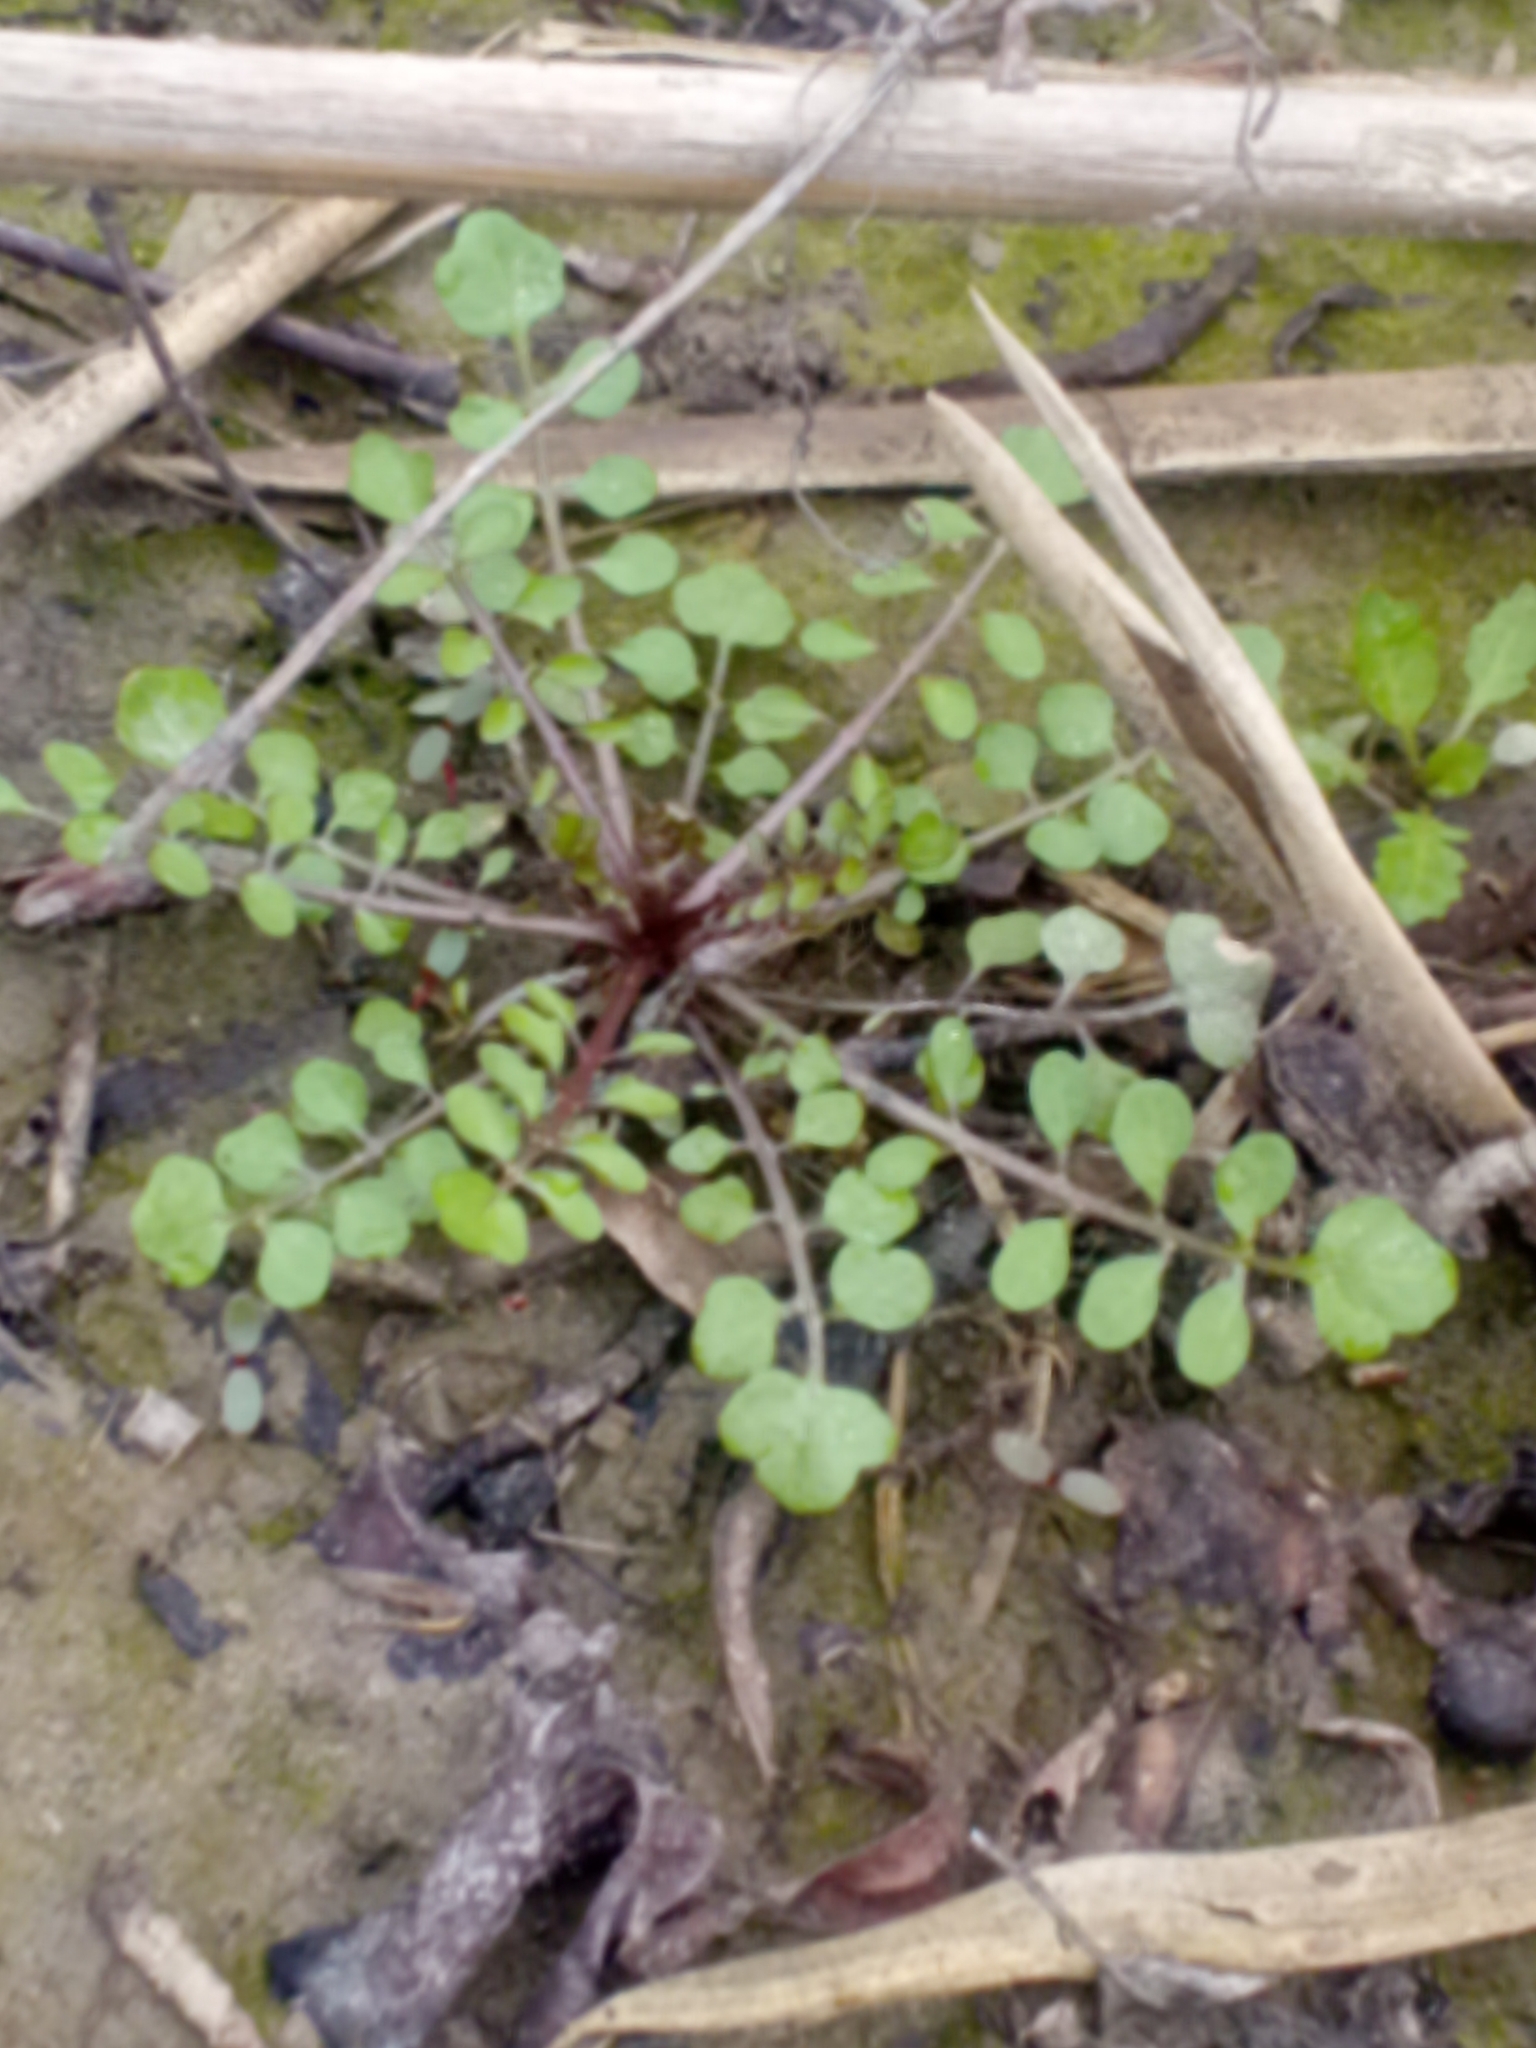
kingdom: Plantae
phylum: Tracheophyta
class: Magnoliopsida
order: Brassicales
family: Brassicaceae
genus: Cardamine
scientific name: Cardamine pensylvanica
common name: Pennsylvania bittercress
